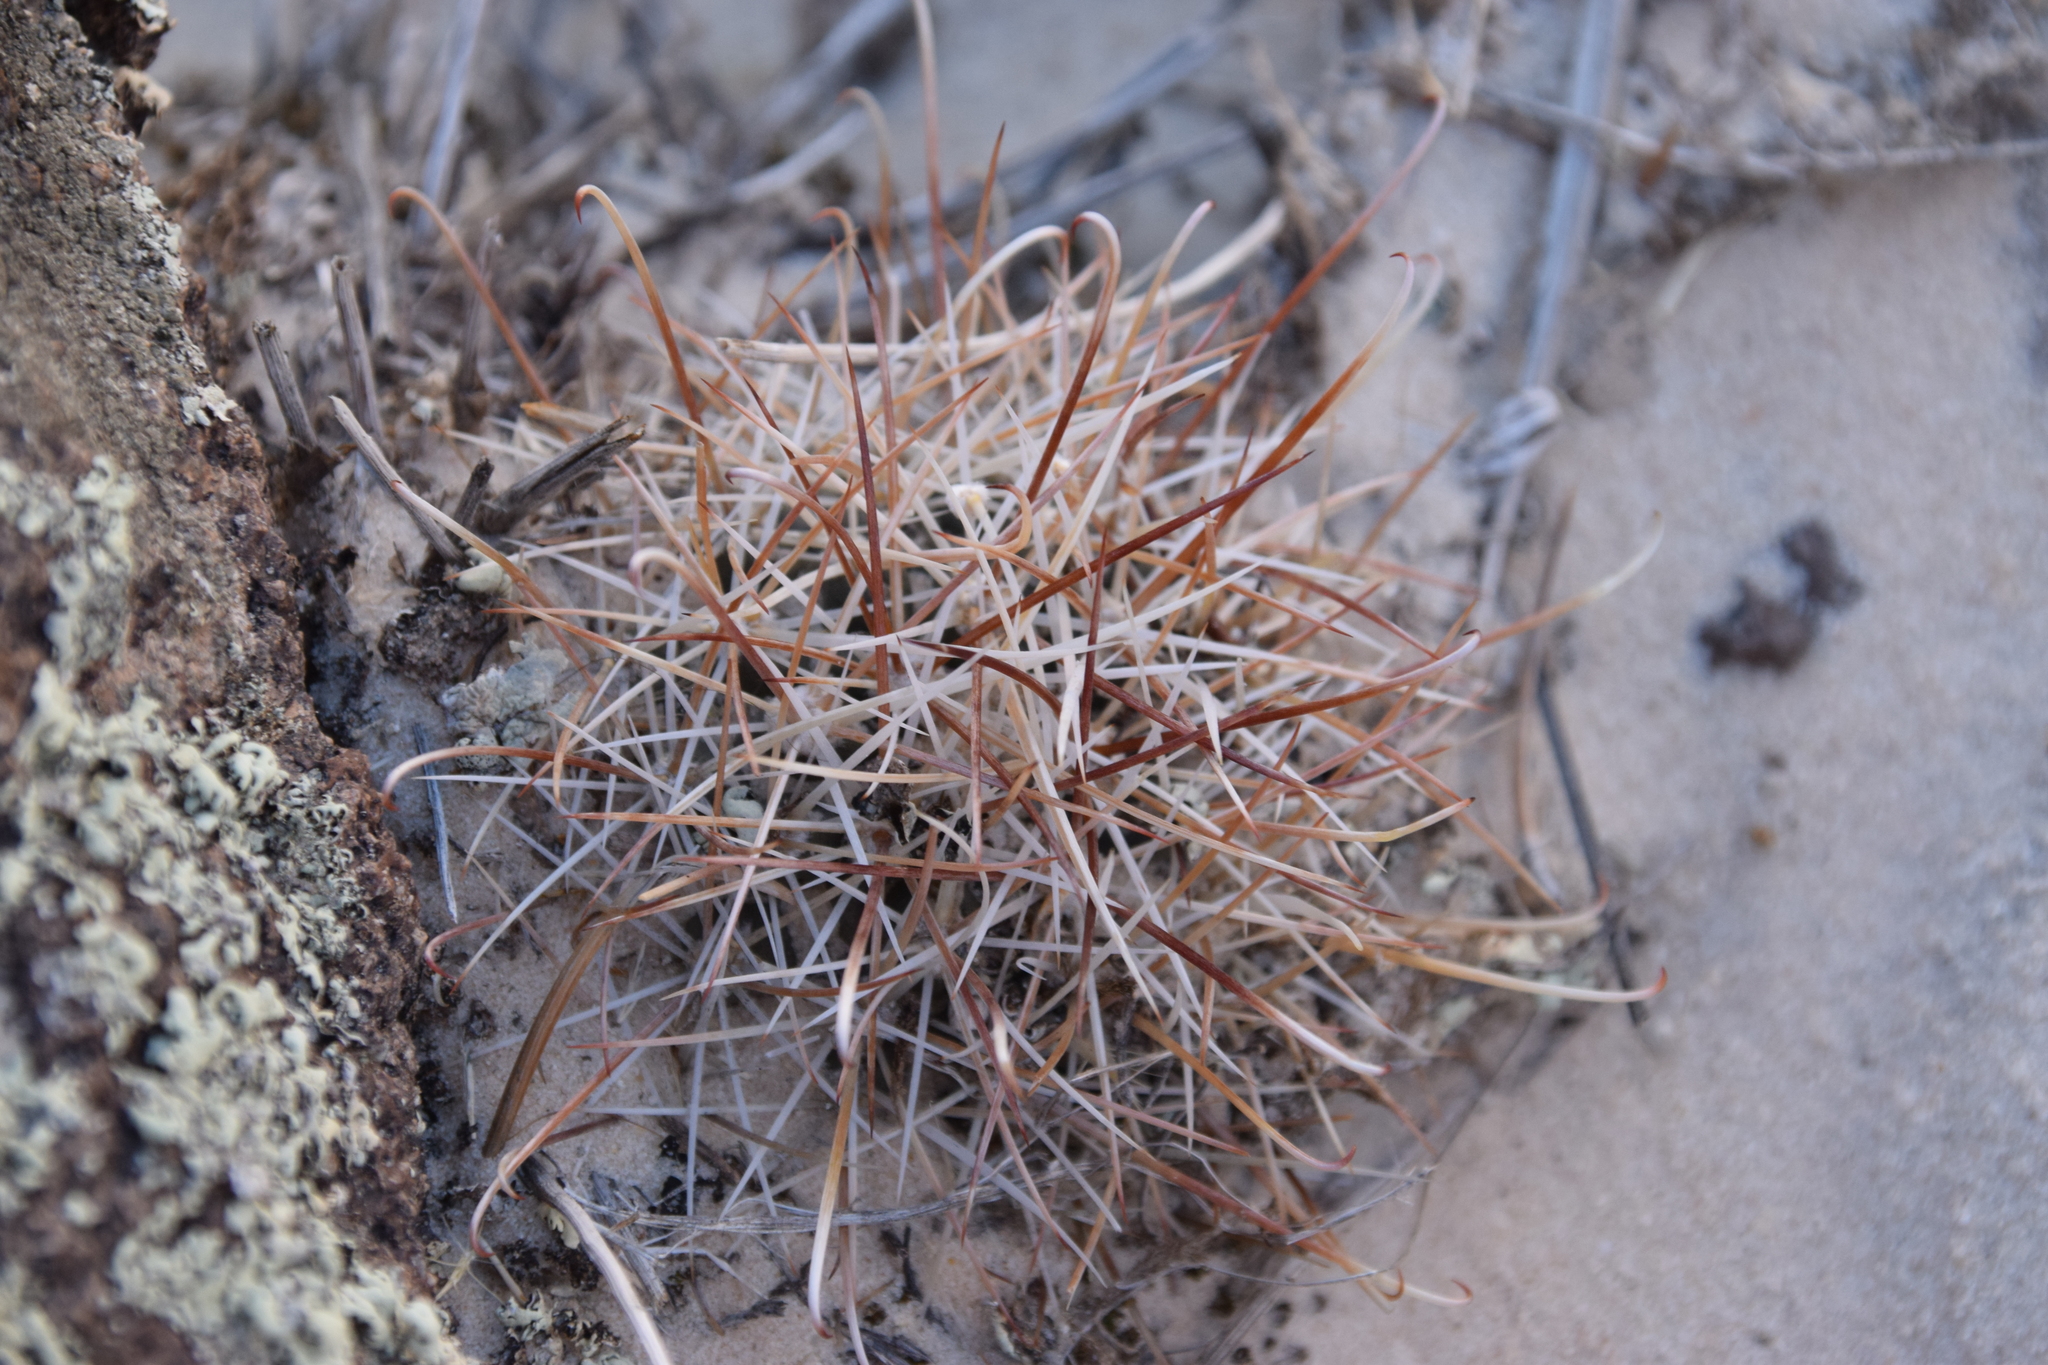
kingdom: Plantae
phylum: Tracheophyta
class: Magnoliopsida
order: Caryophyllales
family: Cactaceae
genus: Sclerocactus
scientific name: Sclerocactus parviflorus
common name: Small-flower fishhook cactus
